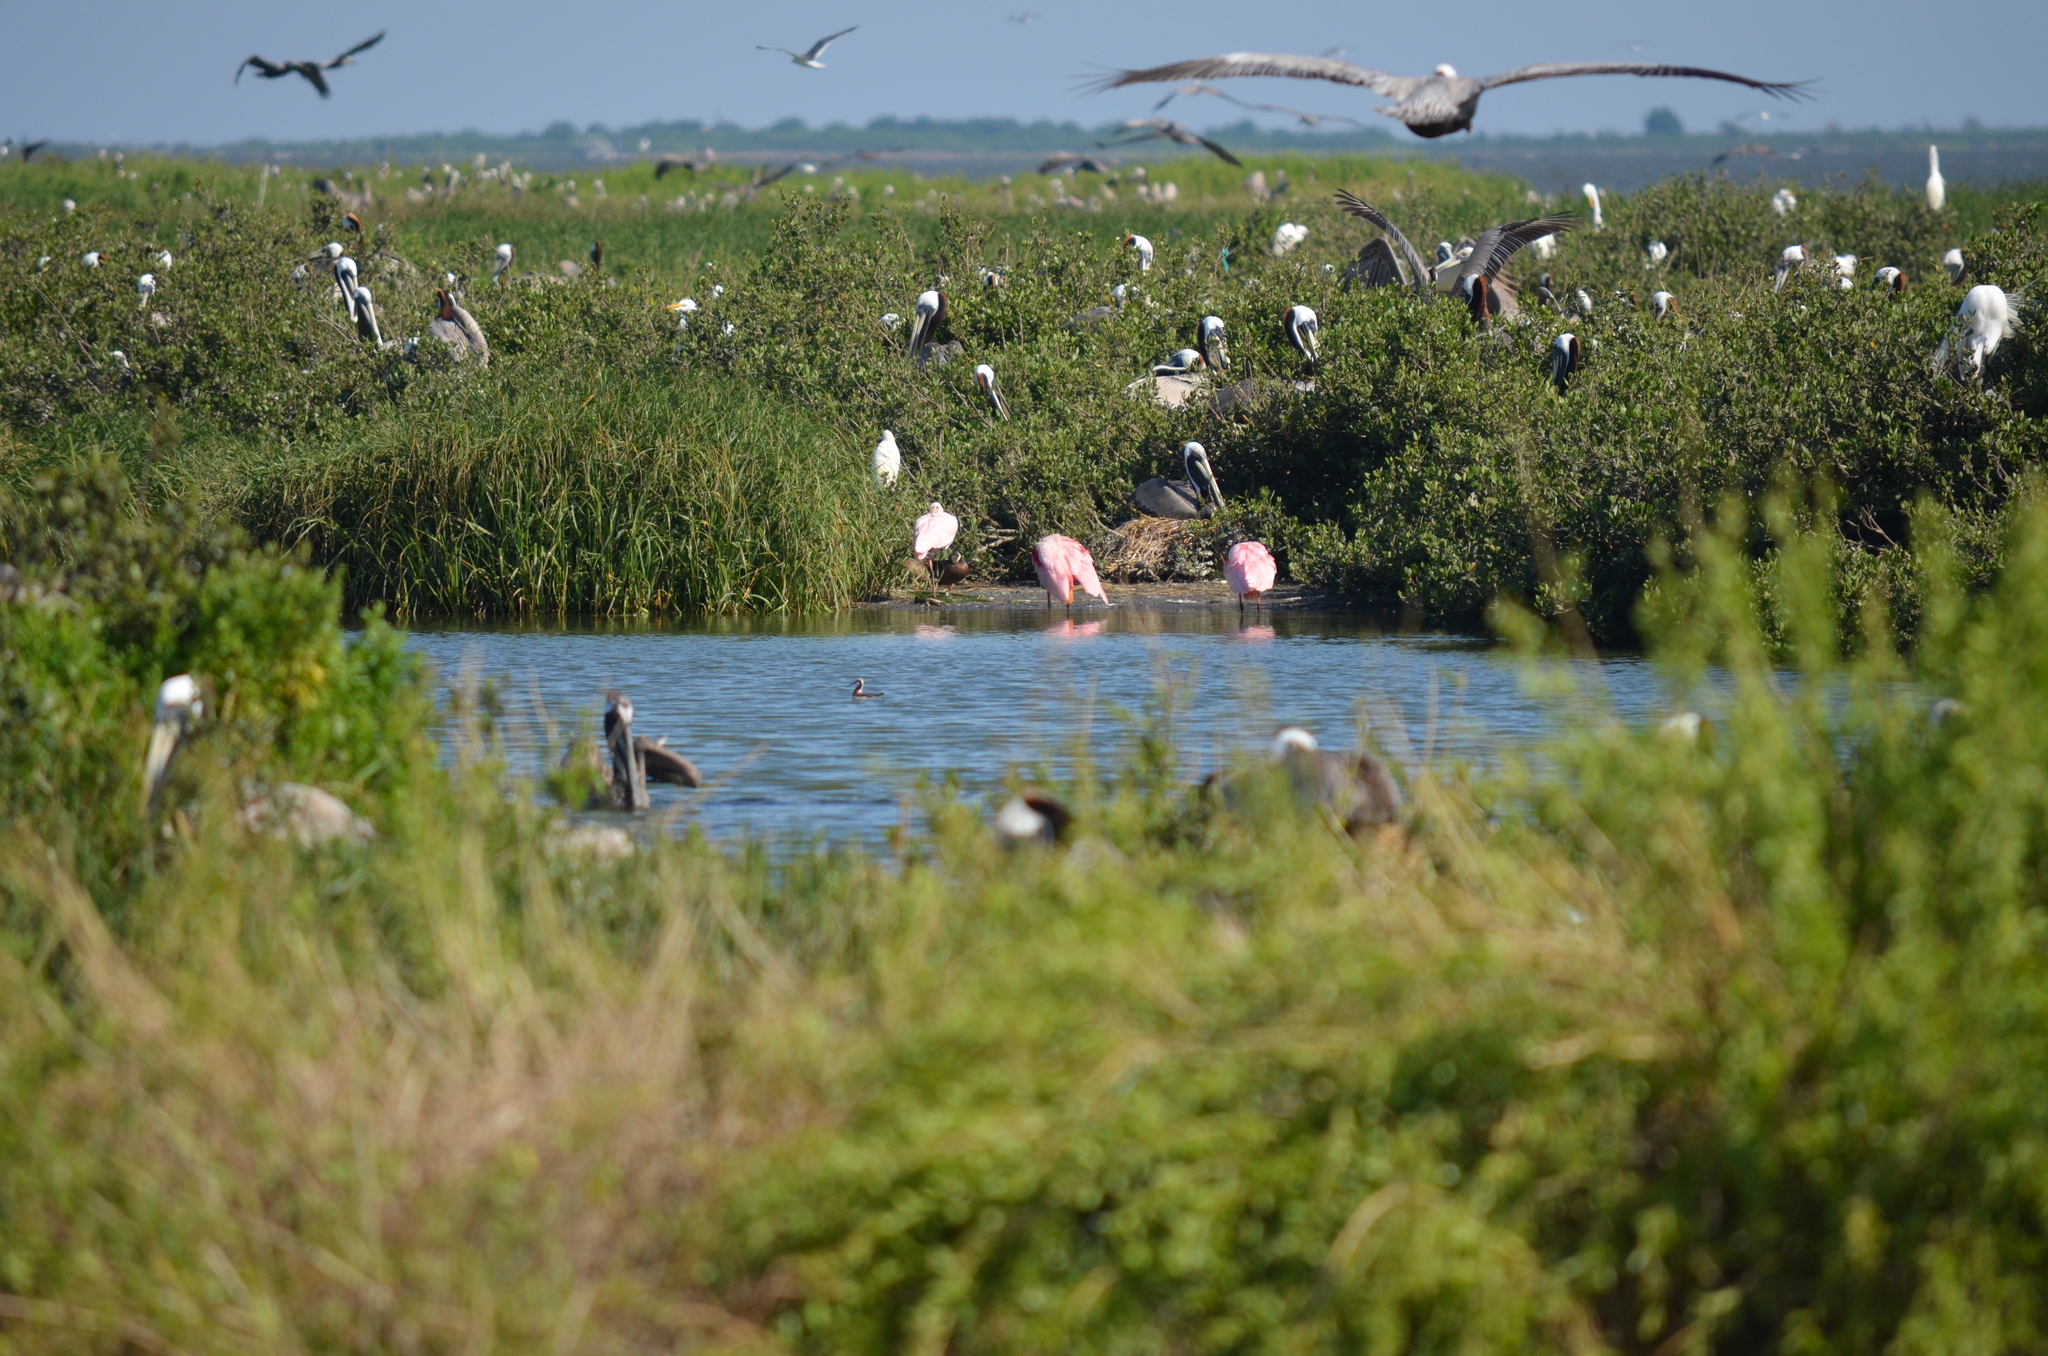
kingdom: Animalia
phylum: Chordata
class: Aves
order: Charadriiformes
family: Scolopacidae
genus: Phalaropus
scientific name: Phalaropus tricolor
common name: Wilson's phalarope
